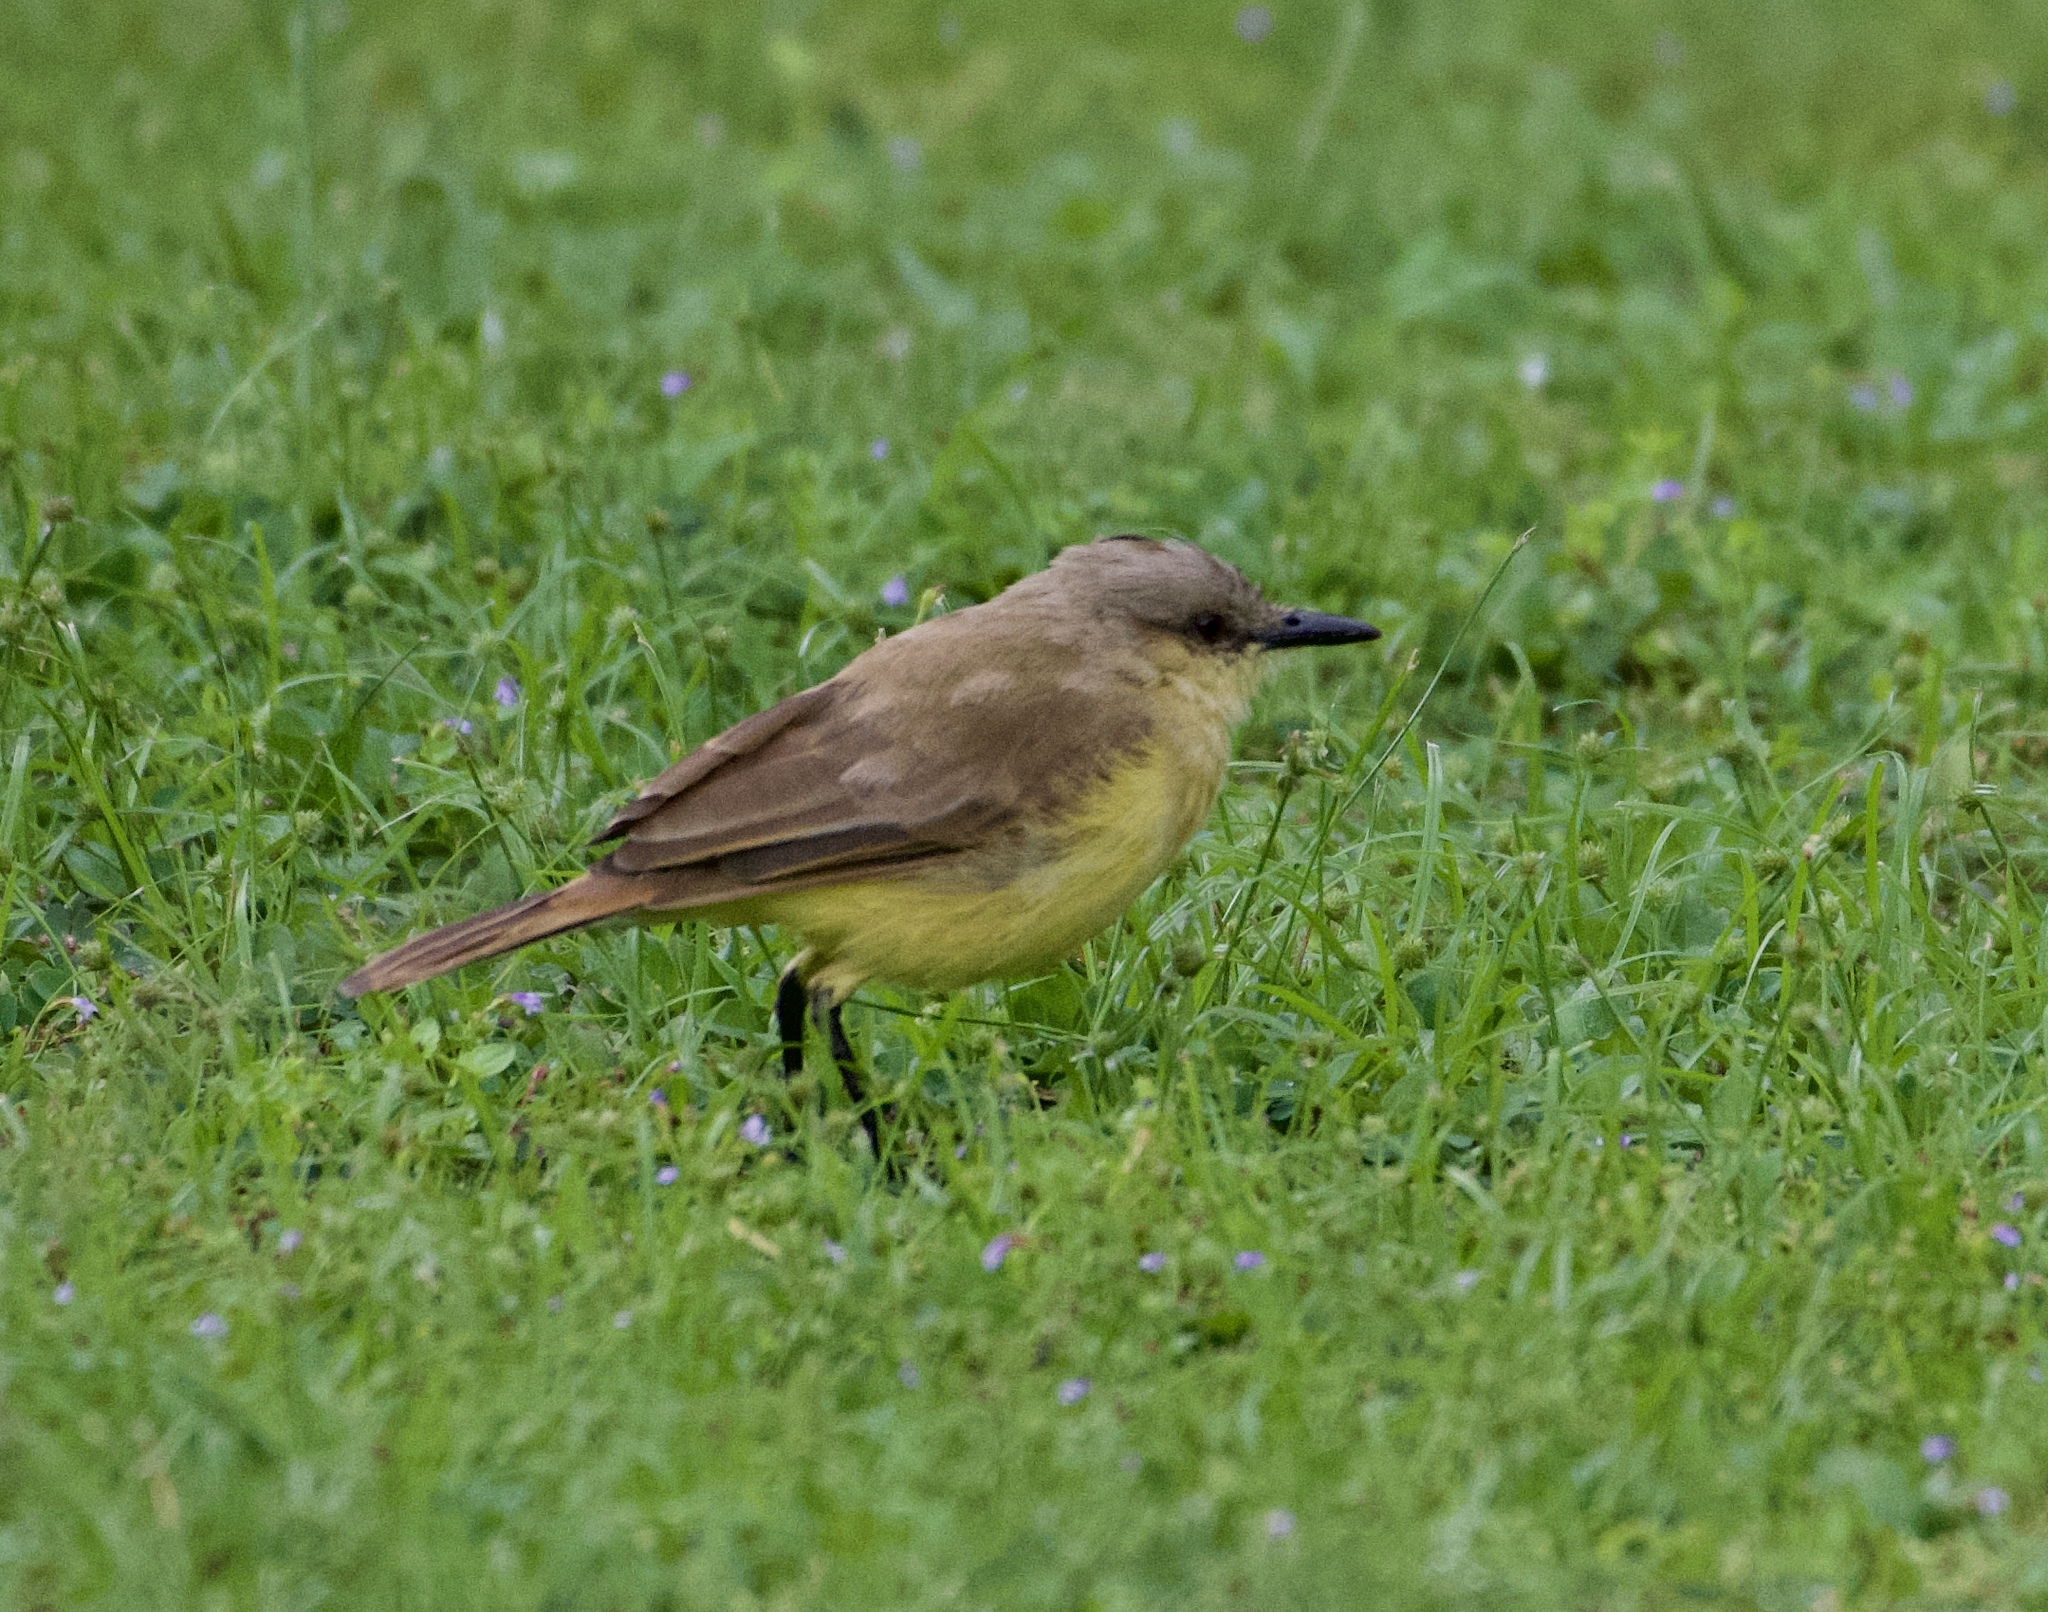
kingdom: Animalia
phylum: Chordata
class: Aves
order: Passeriformes
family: Tyrannidae
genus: Machetornis
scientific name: Machetornis rixosa
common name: Cattle tyrant
